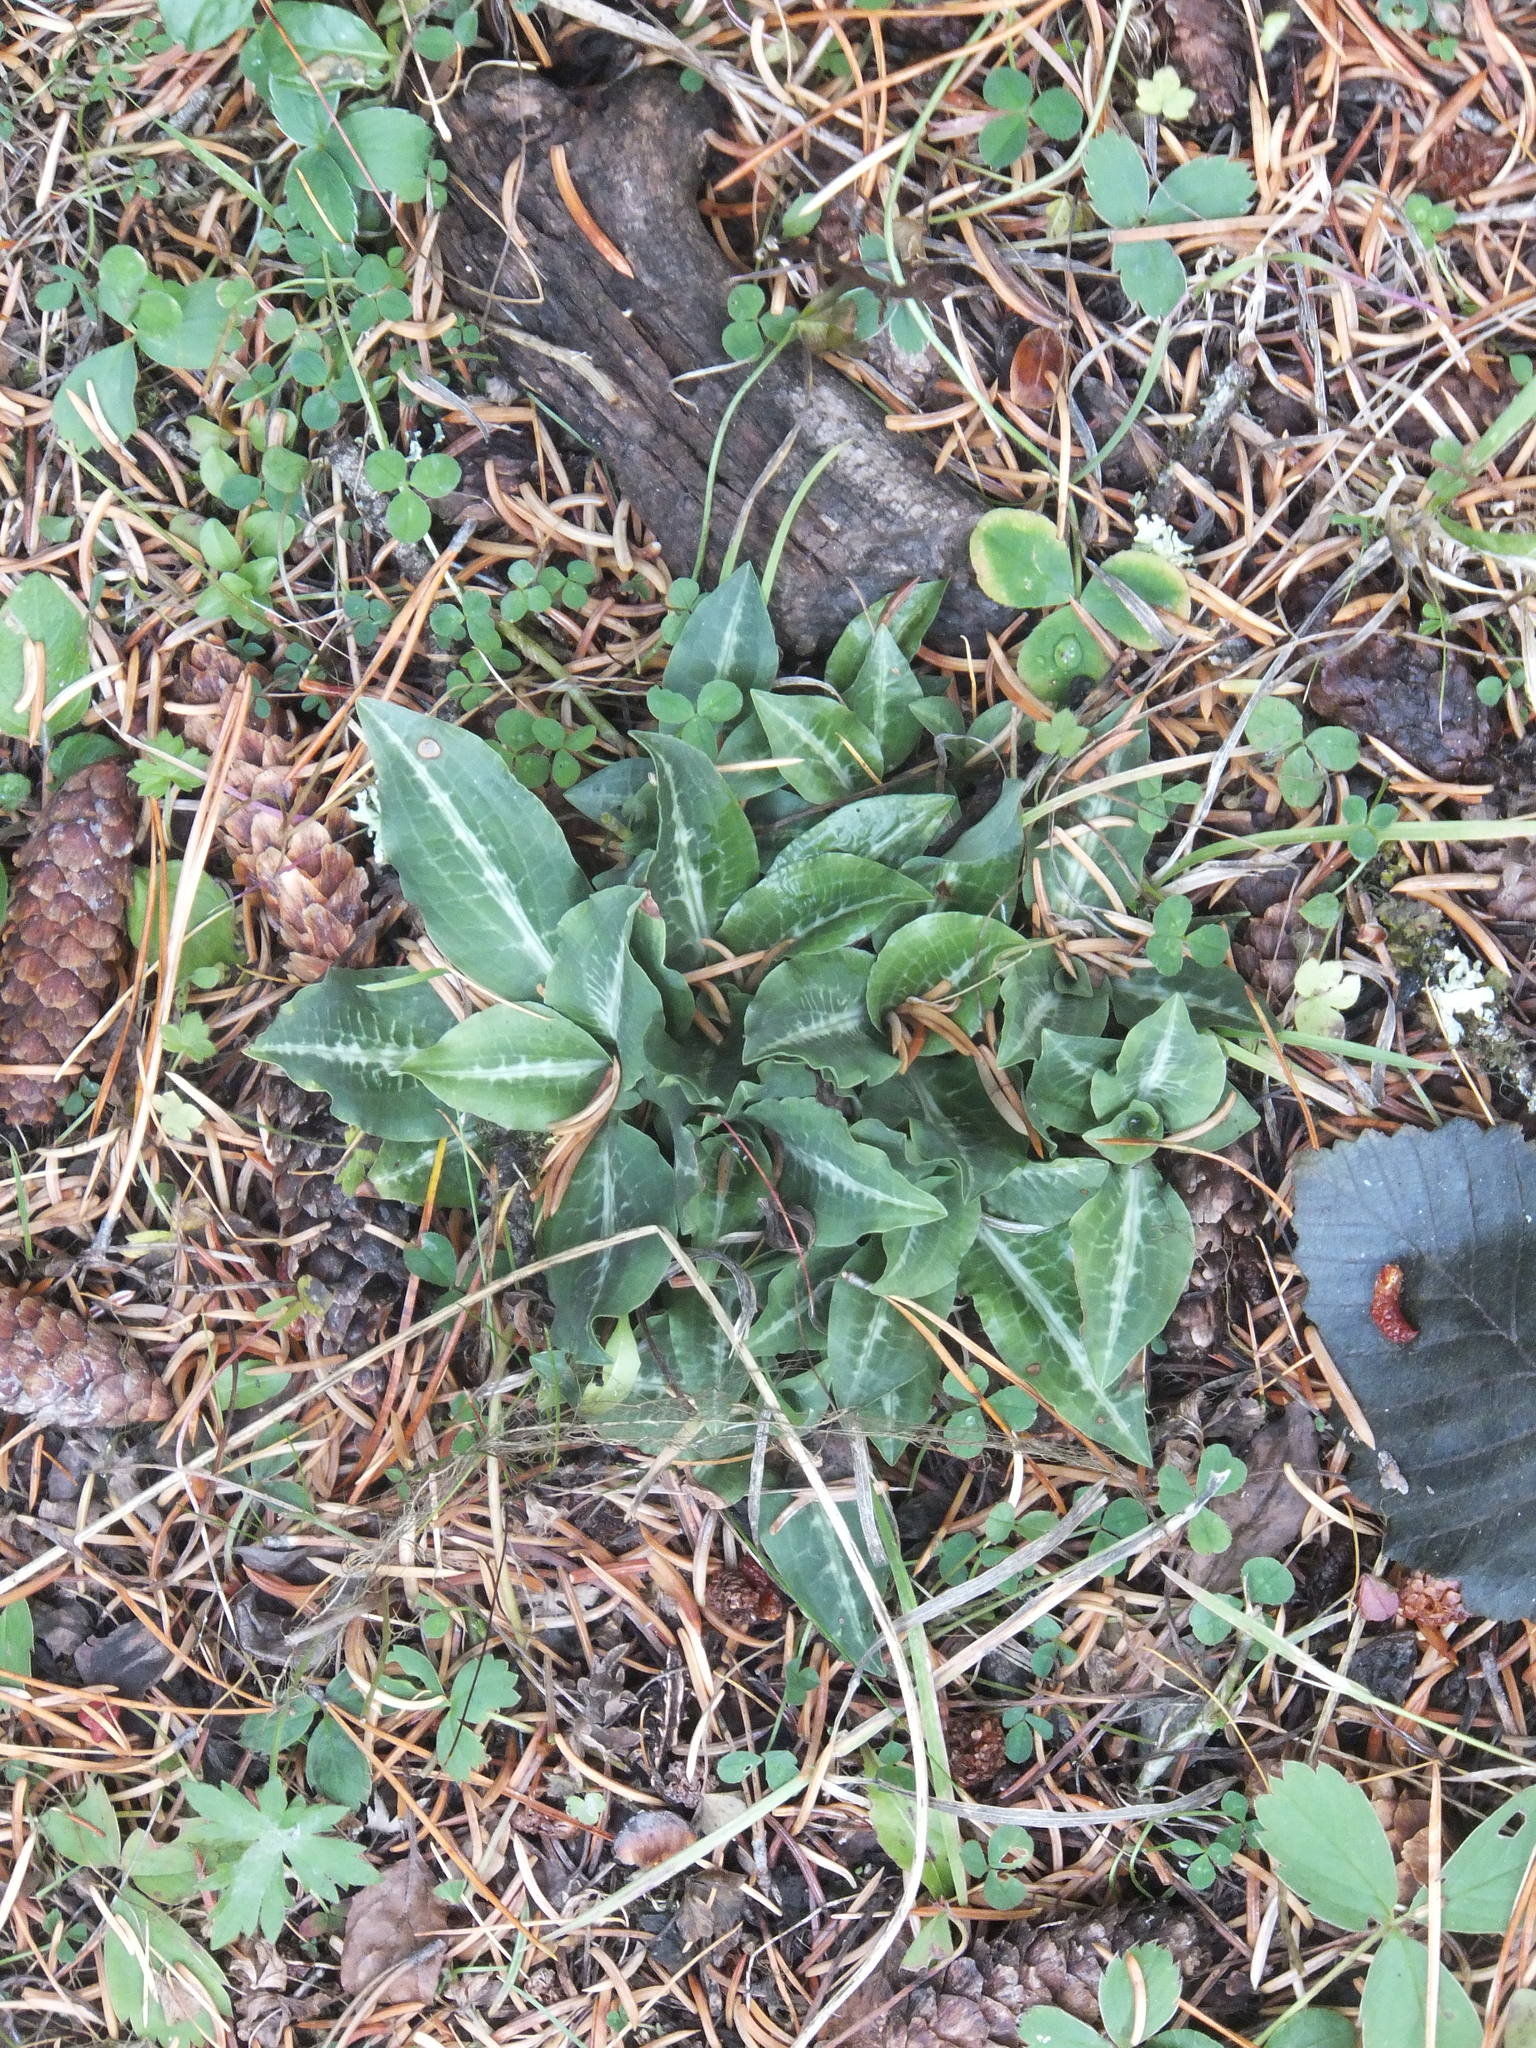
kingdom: Plantae
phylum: Tracheophyta
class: Liliopsida
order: Asparagales
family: Orchidaceae
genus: Goodyera
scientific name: Goodyera oblongifolia
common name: Giant rattlesnake-plantain
